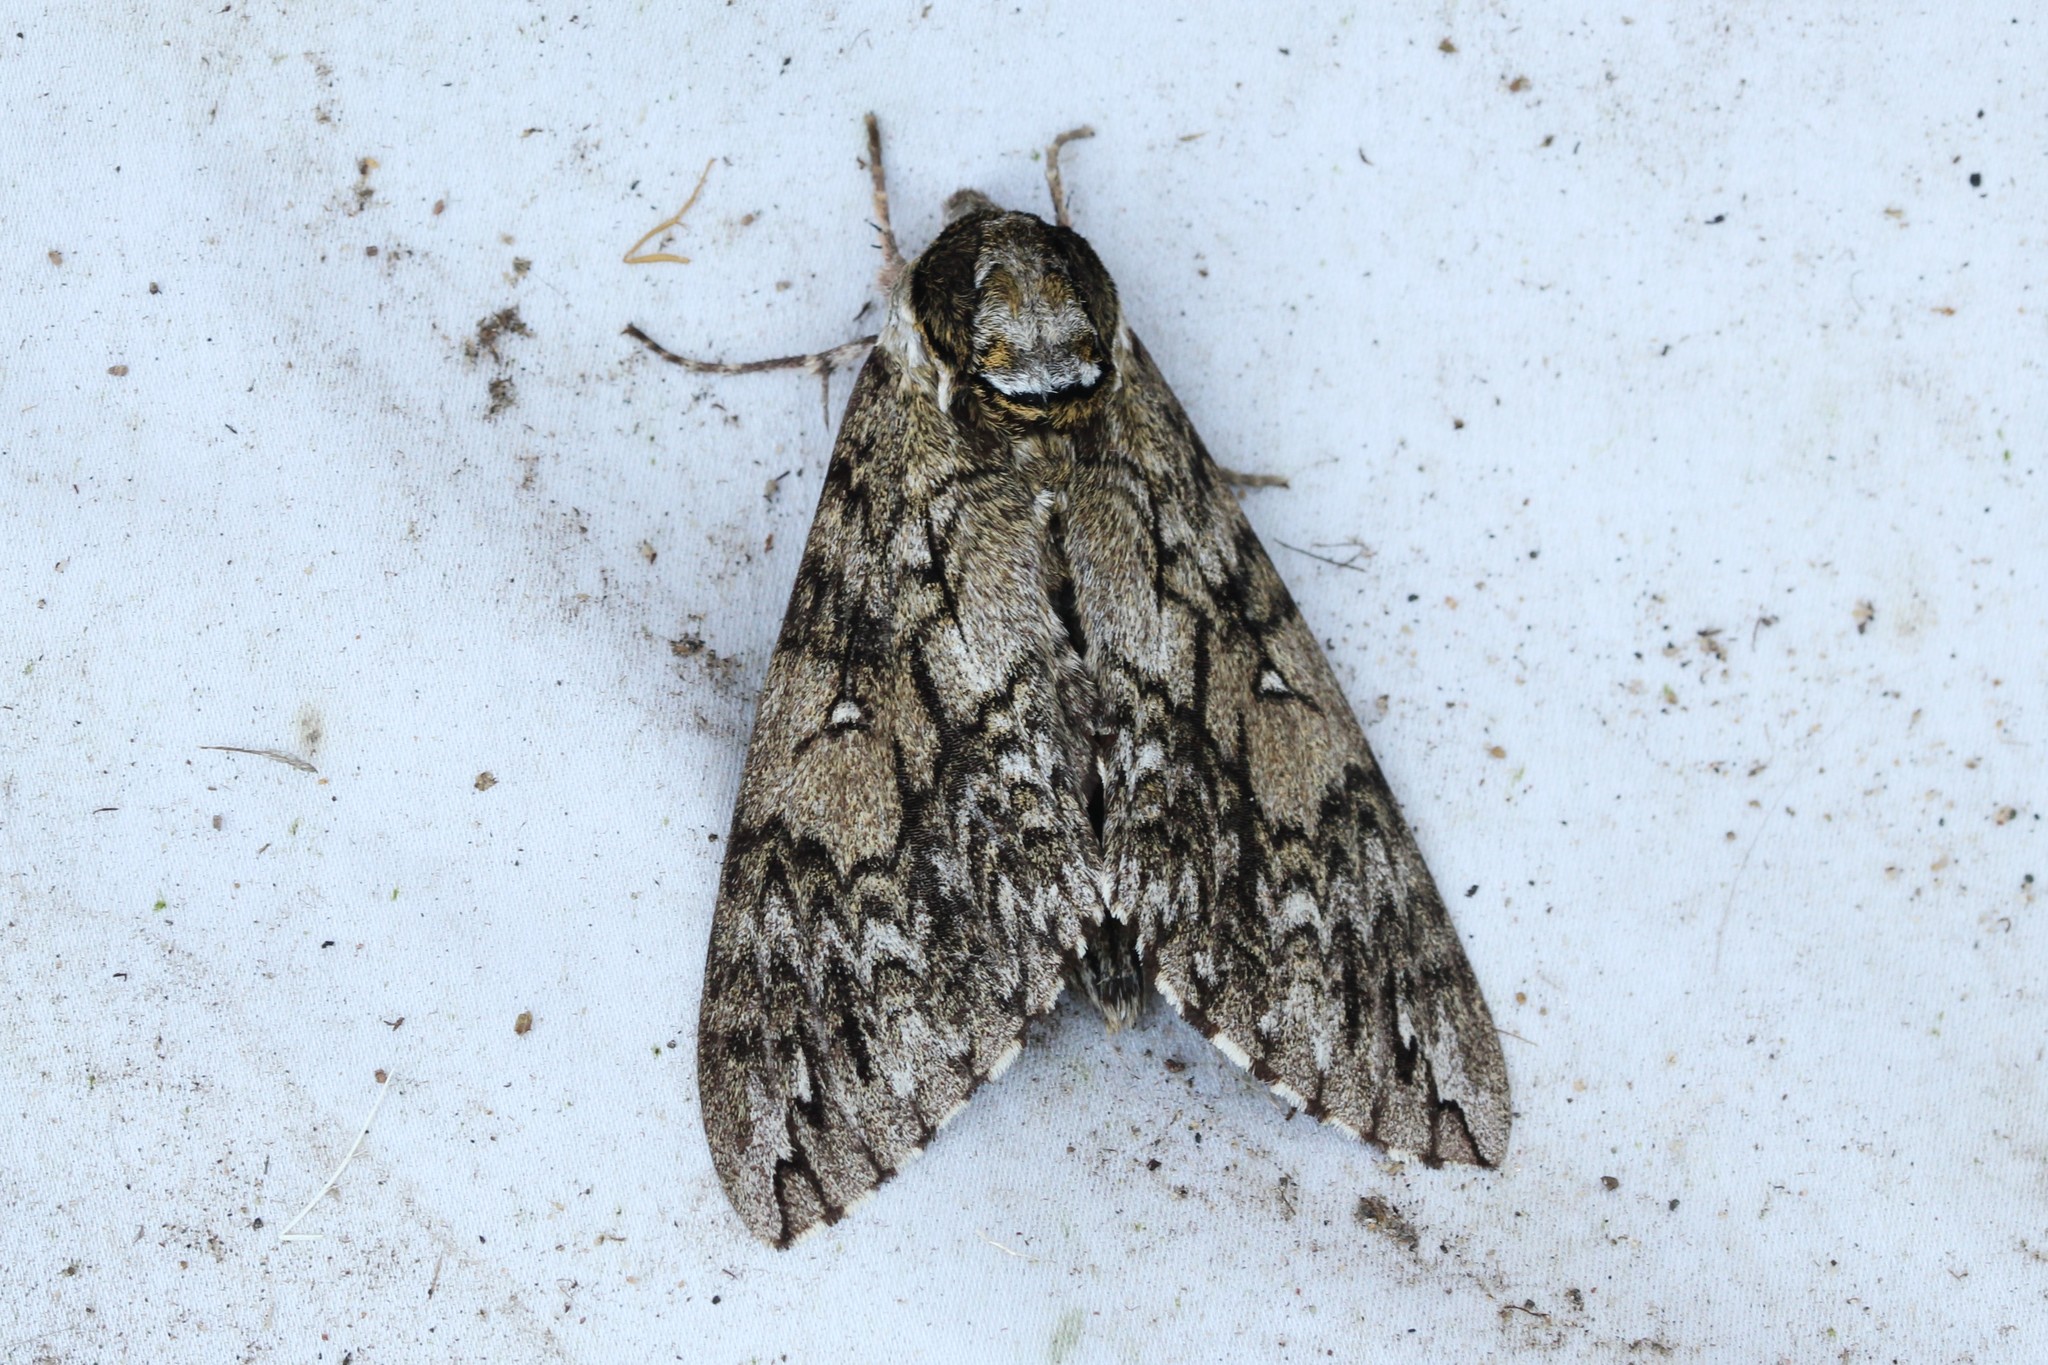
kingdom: Animalia
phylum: Arthropoda
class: Insecta
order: Lepidoptera
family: Sphingidae
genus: Ceratomia
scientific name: Ceratomia undulosa
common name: Waved sphinx
